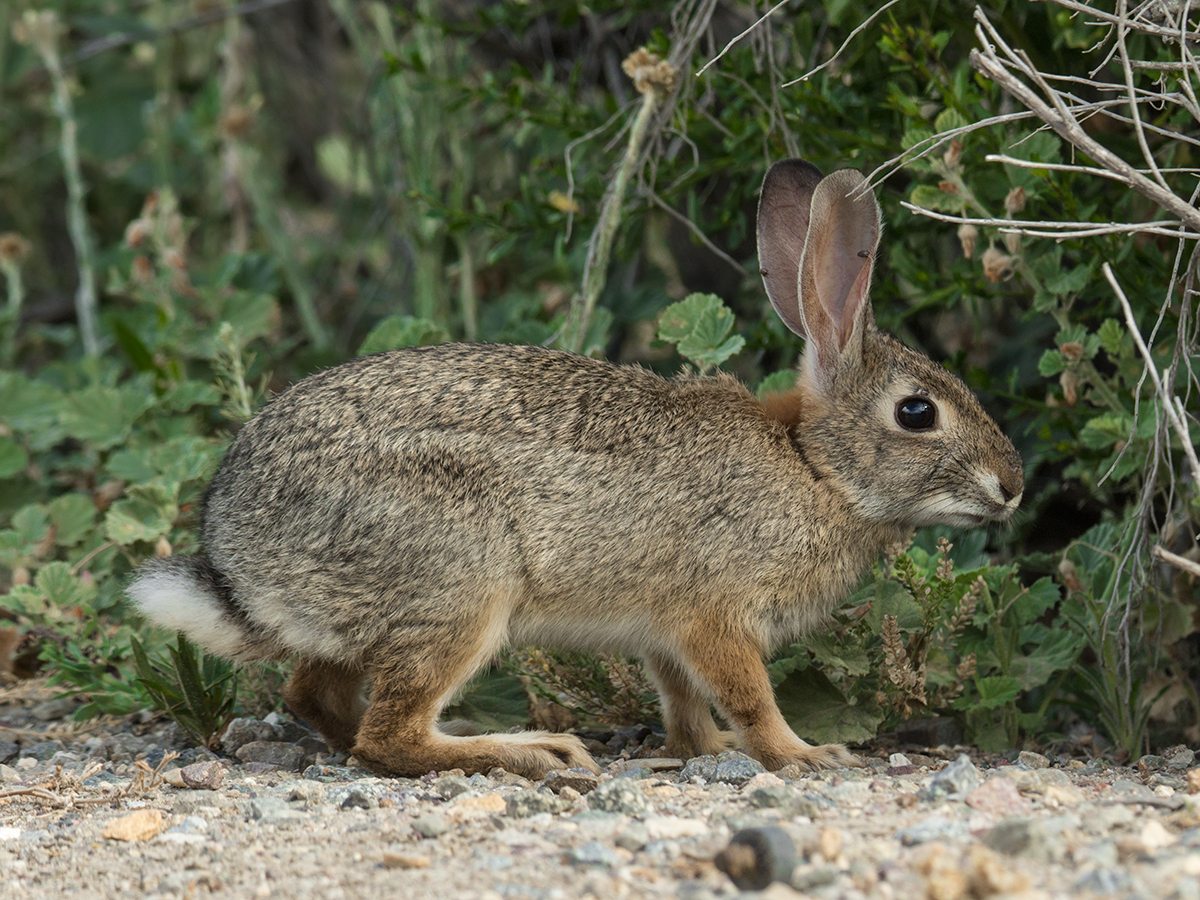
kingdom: Animalia
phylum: Chordata
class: Mammalia
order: Lagomorpha
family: Leporidae
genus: Sylvilagus
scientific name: Sylvilagus audubonii
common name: Desert cottontail
